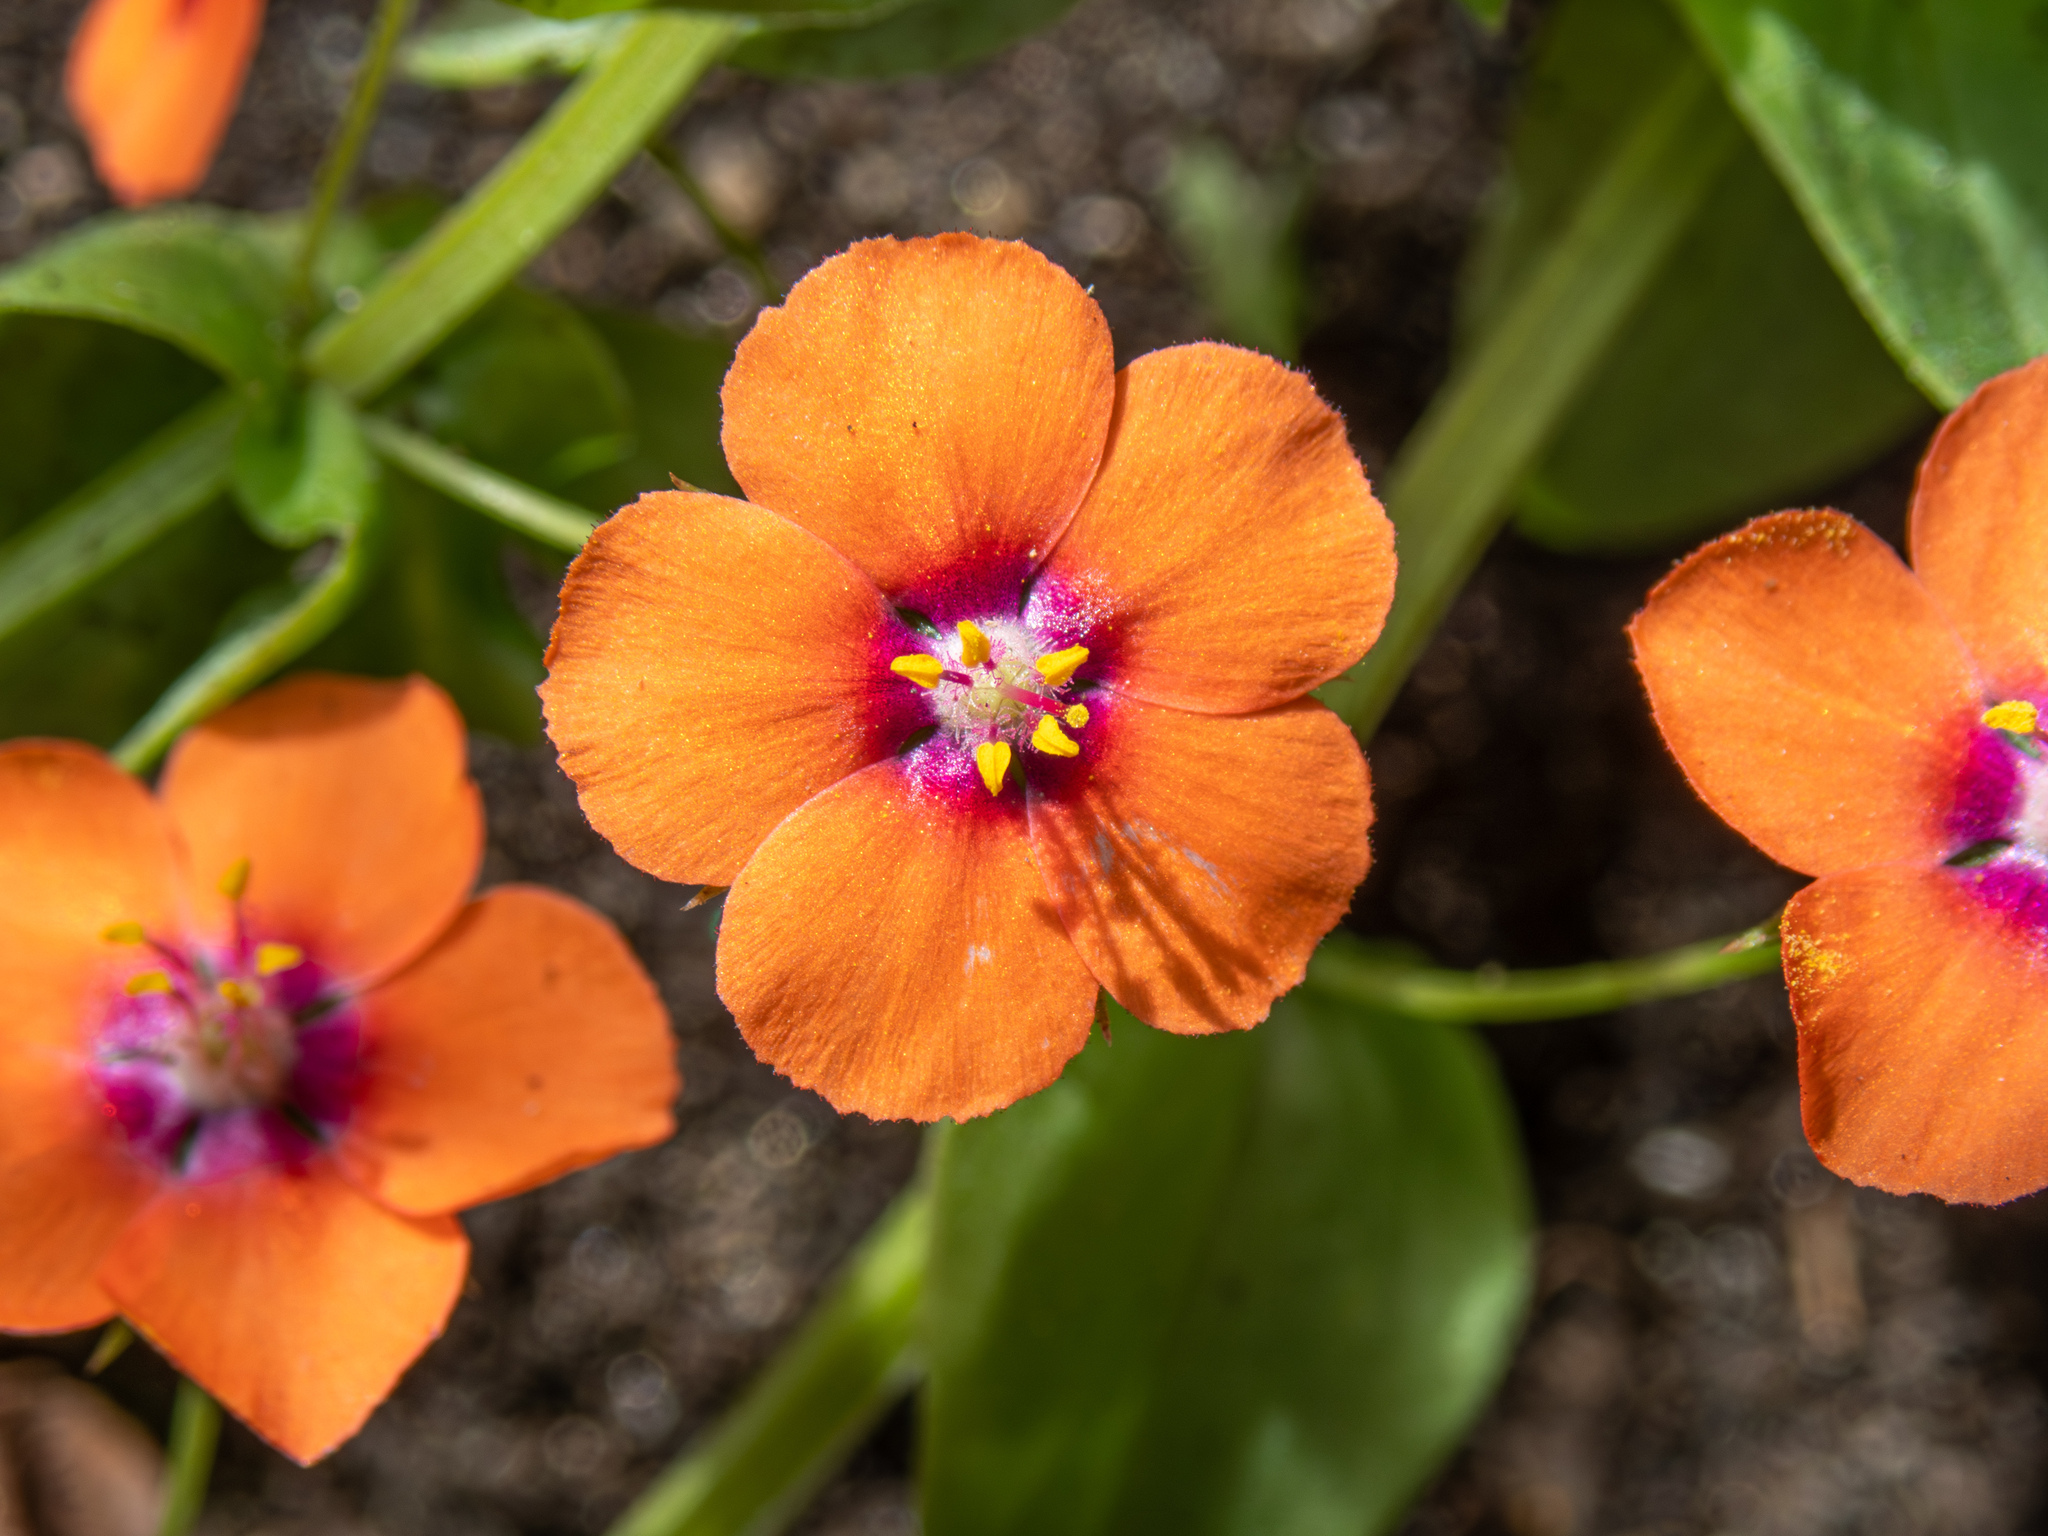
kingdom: Plantae
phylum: Tracheophyta
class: Magnoliopsida
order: Ericales
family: Primulaceae
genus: Lysimachia
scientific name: Lysimachia arvensis
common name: Scarlet pimpernel
